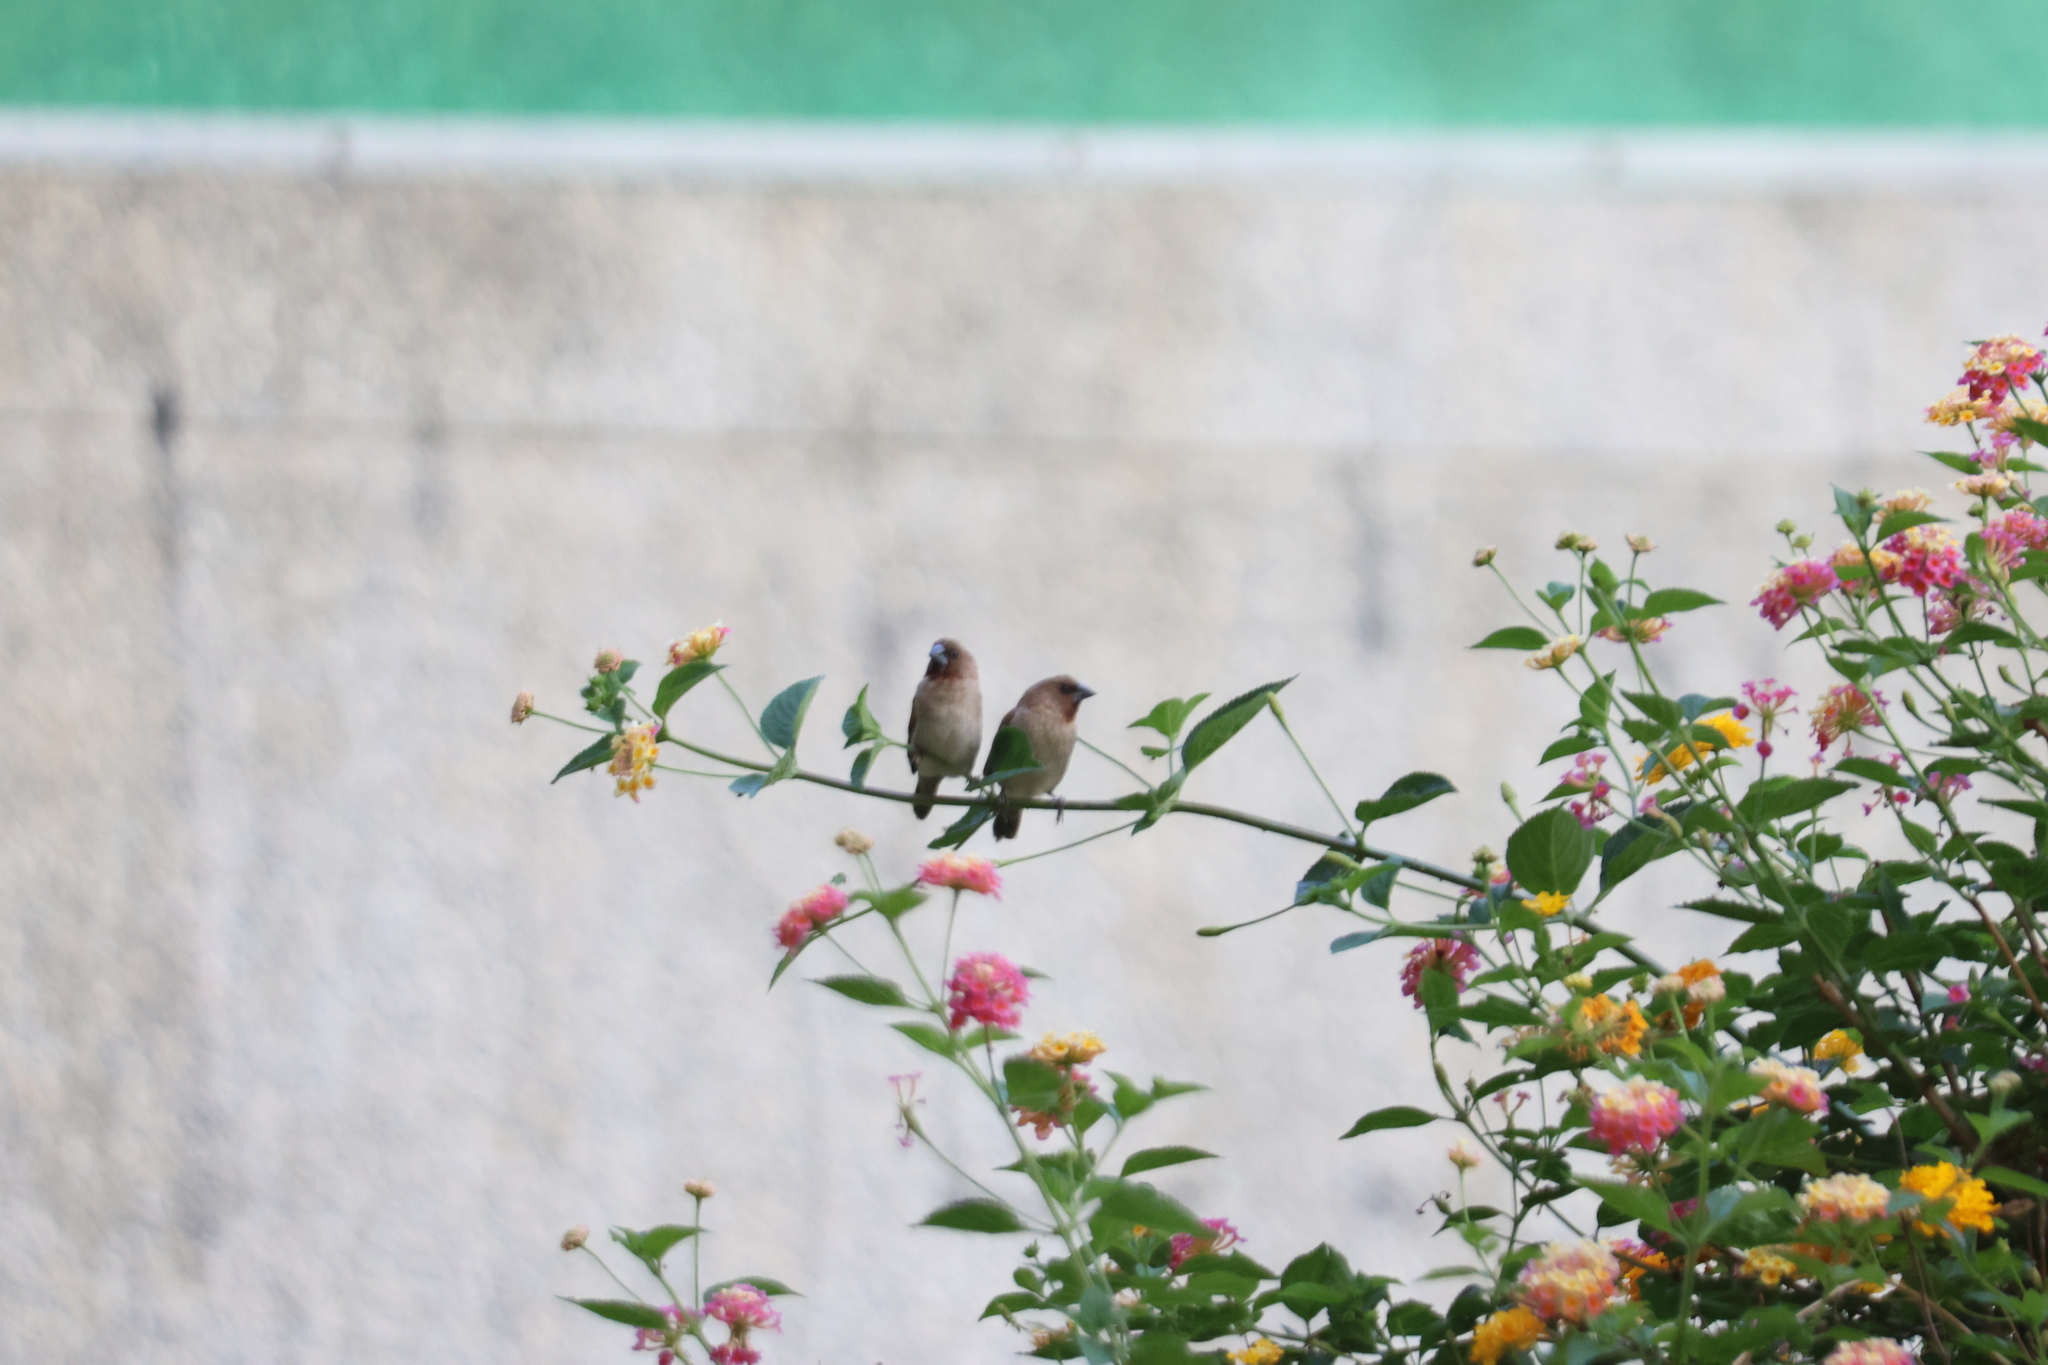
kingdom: Animalia
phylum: Chordata
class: Aves
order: Passeriformes
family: Estrildidae
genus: Lonchura
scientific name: Lonchura punctulata
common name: Scaly-breasted munia
